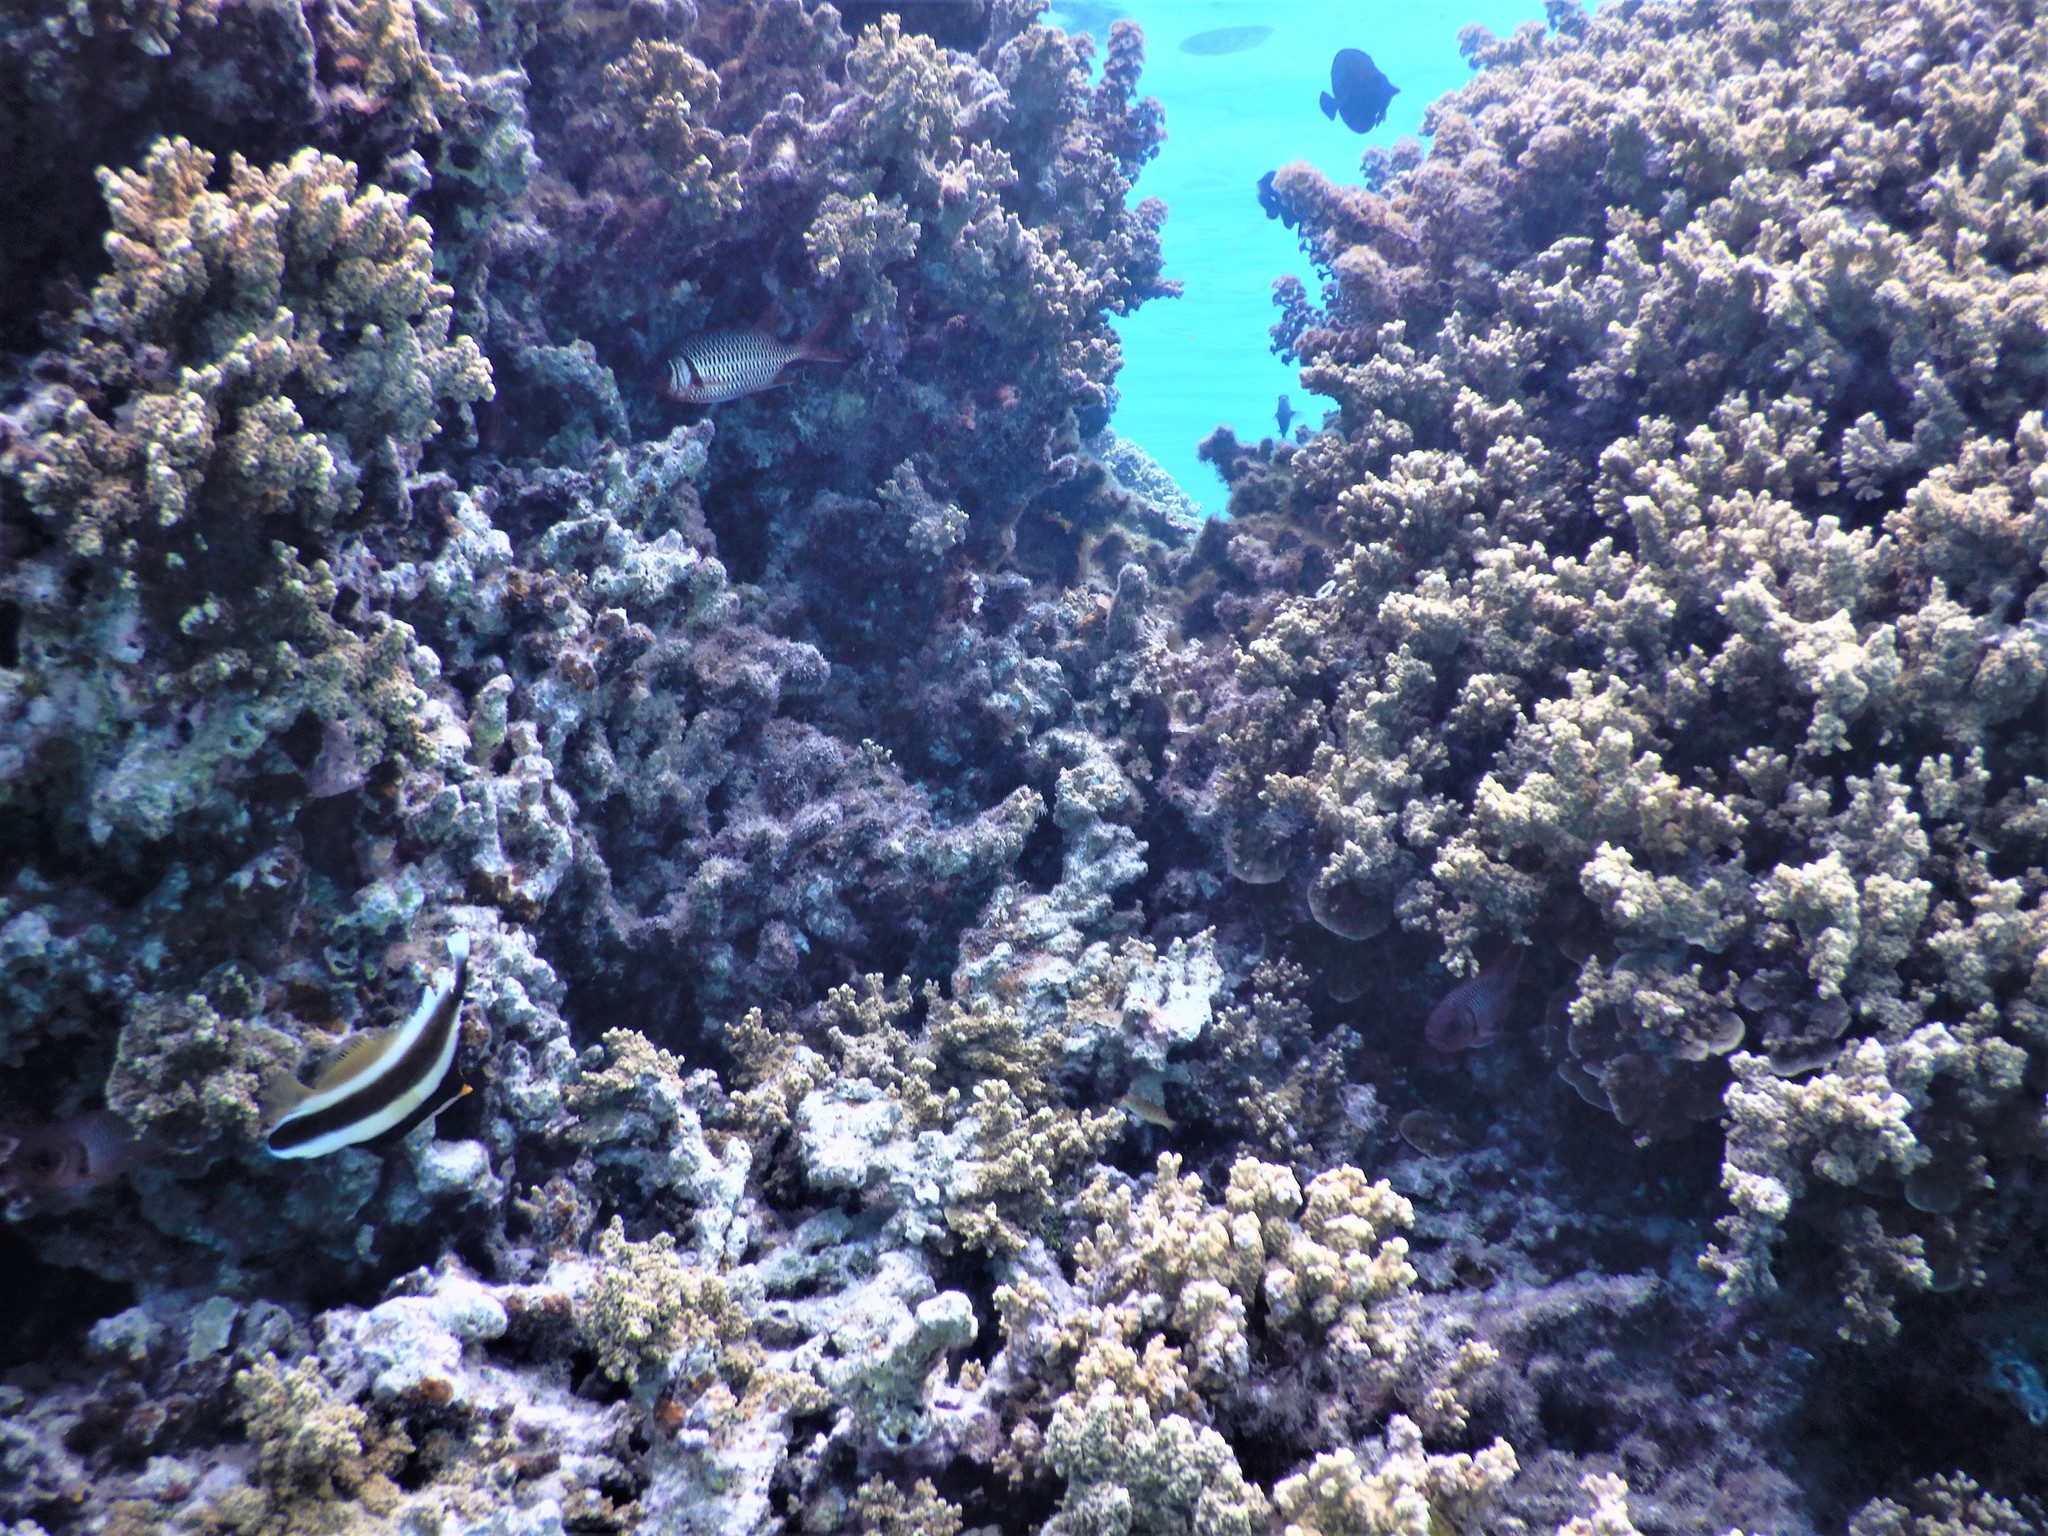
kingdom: Animalia
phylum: Chordata
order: Perciformes
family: Chaetodontidae
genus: Heniochus
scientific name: Heniochus chrysostomus
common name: Horned bannerfish
